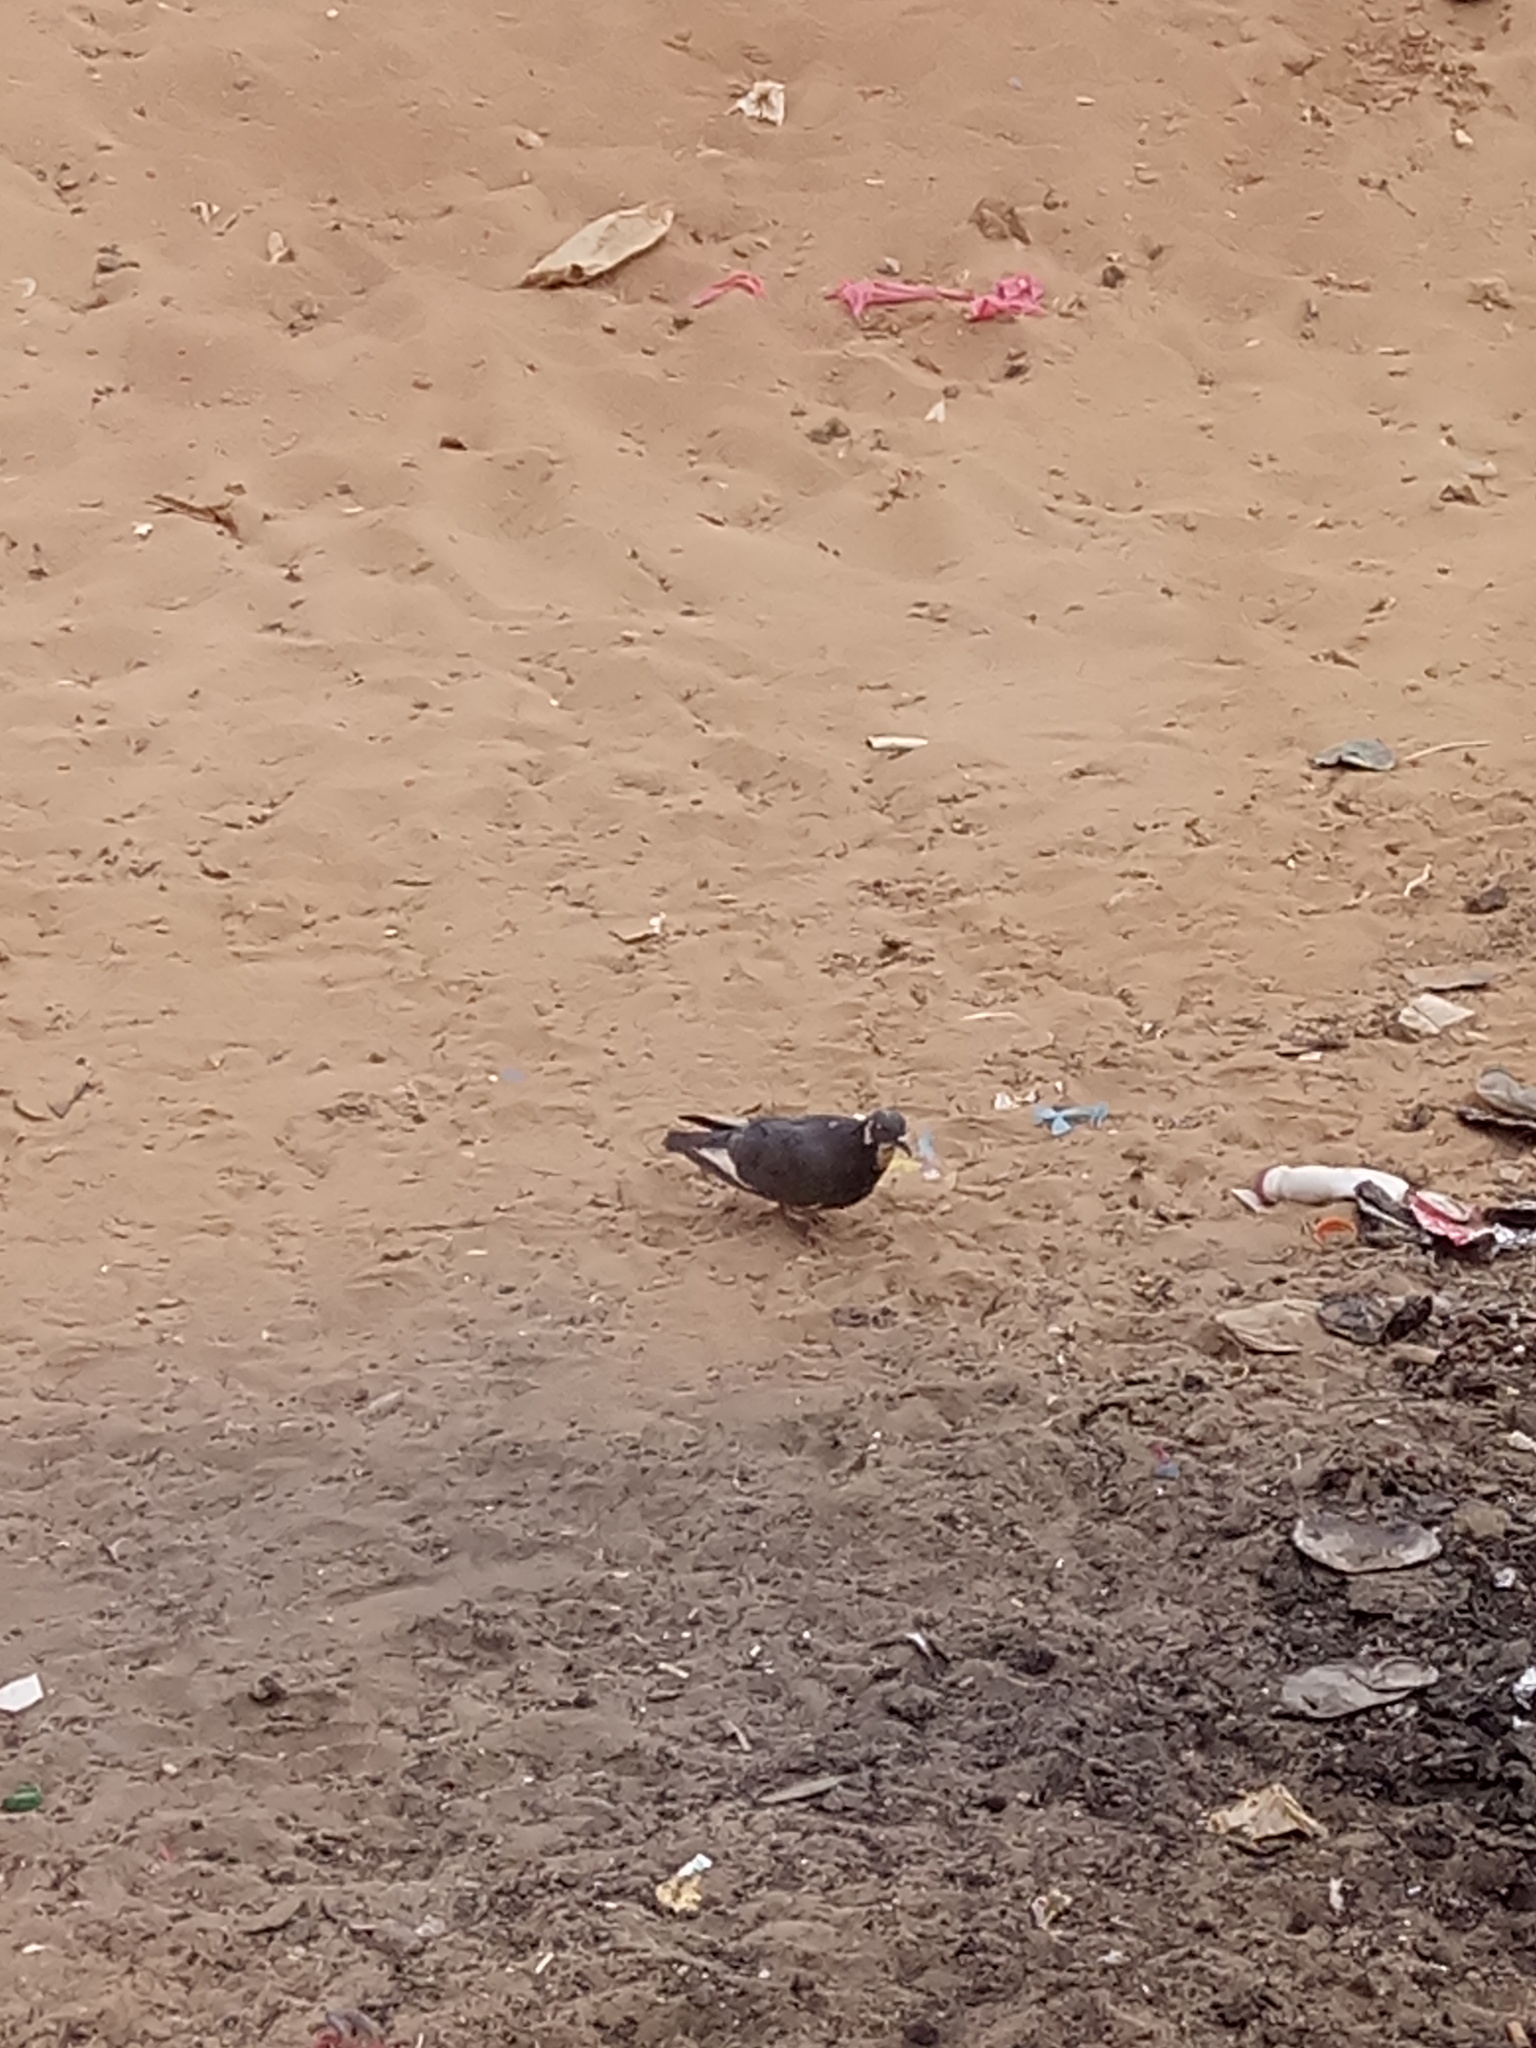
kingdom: Animalia
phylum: Chordata
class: Aves
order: Columbiformes
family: Columbidae
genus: Columba
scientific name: Columba livia
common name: Rock pigeon
